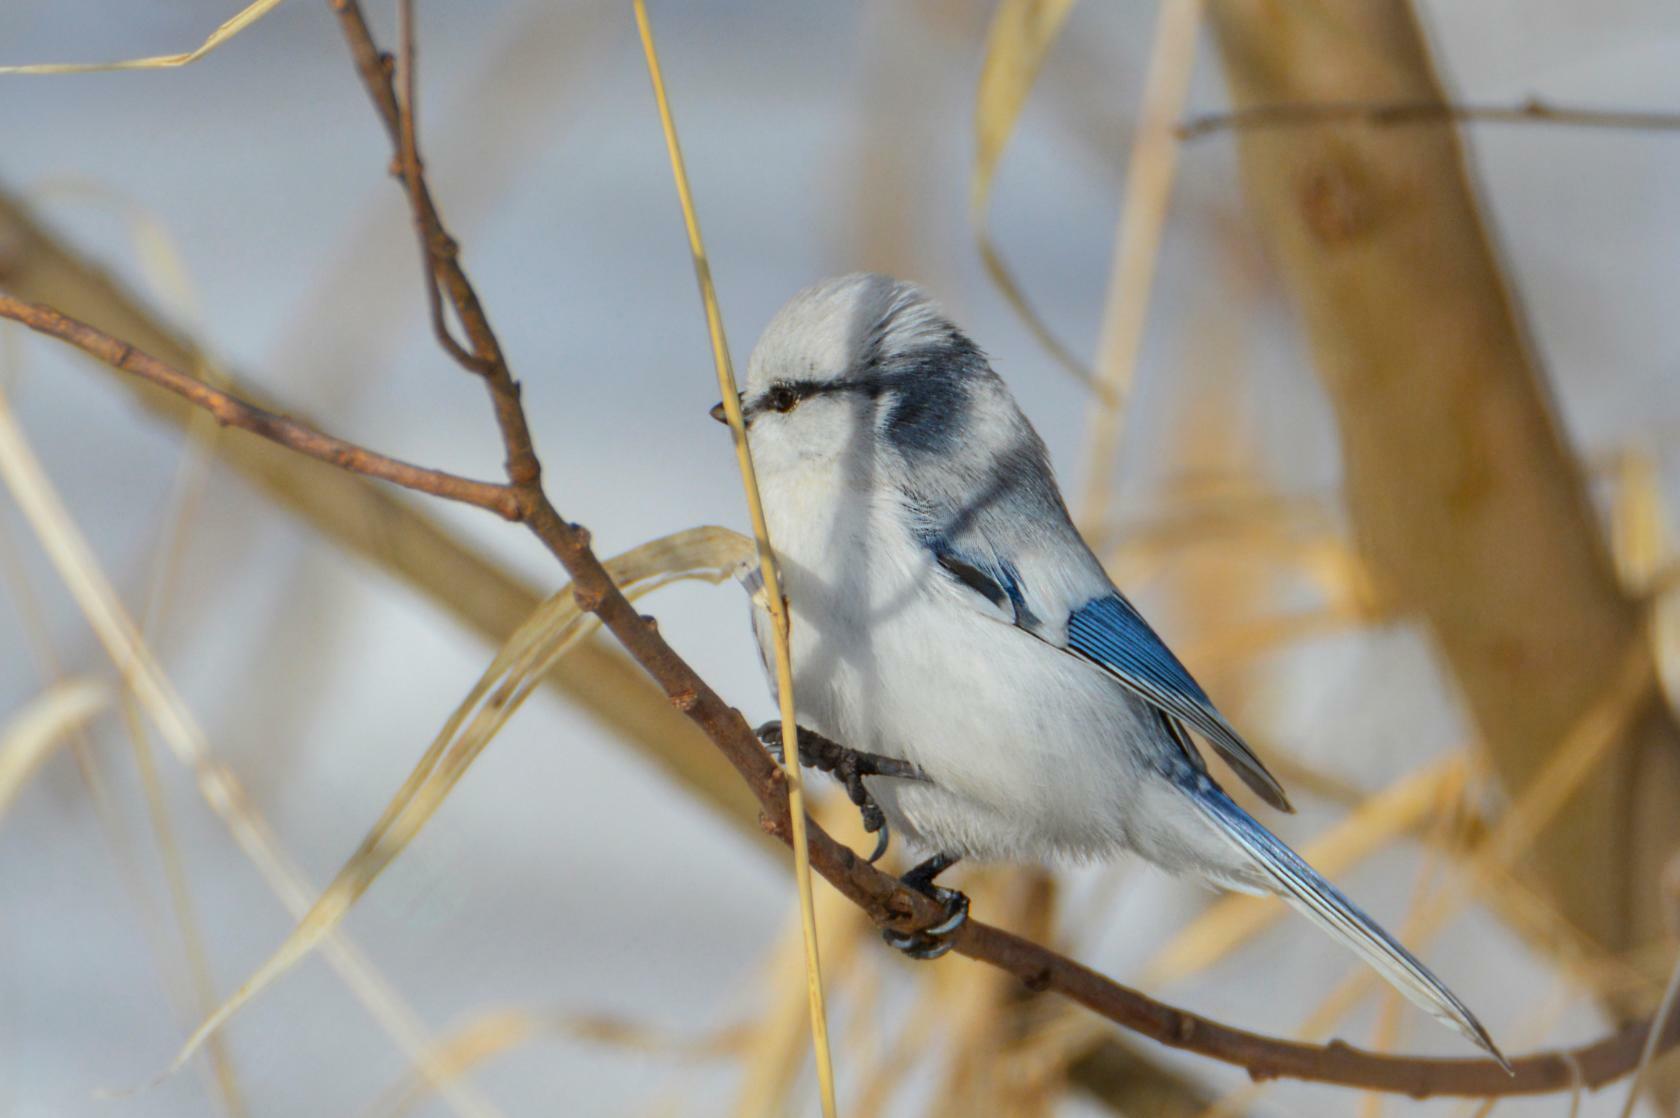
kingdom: Animalia
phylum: Chordata
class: Aves
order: Passeriformes
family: Paridae
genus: Cyanistes
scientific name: Cyanistes cyanus
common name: Azure tit
